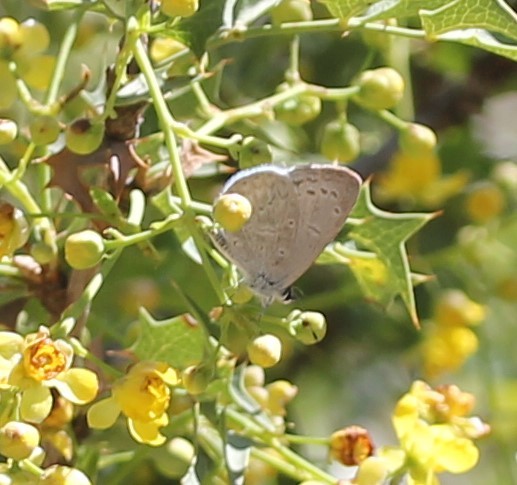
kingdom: Animalia
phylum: Arthropoda
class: Insecta
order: Lepidoptera
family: Lycaenidae
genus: Celastrina
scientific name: Celastrina ladon
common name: Spring azure
